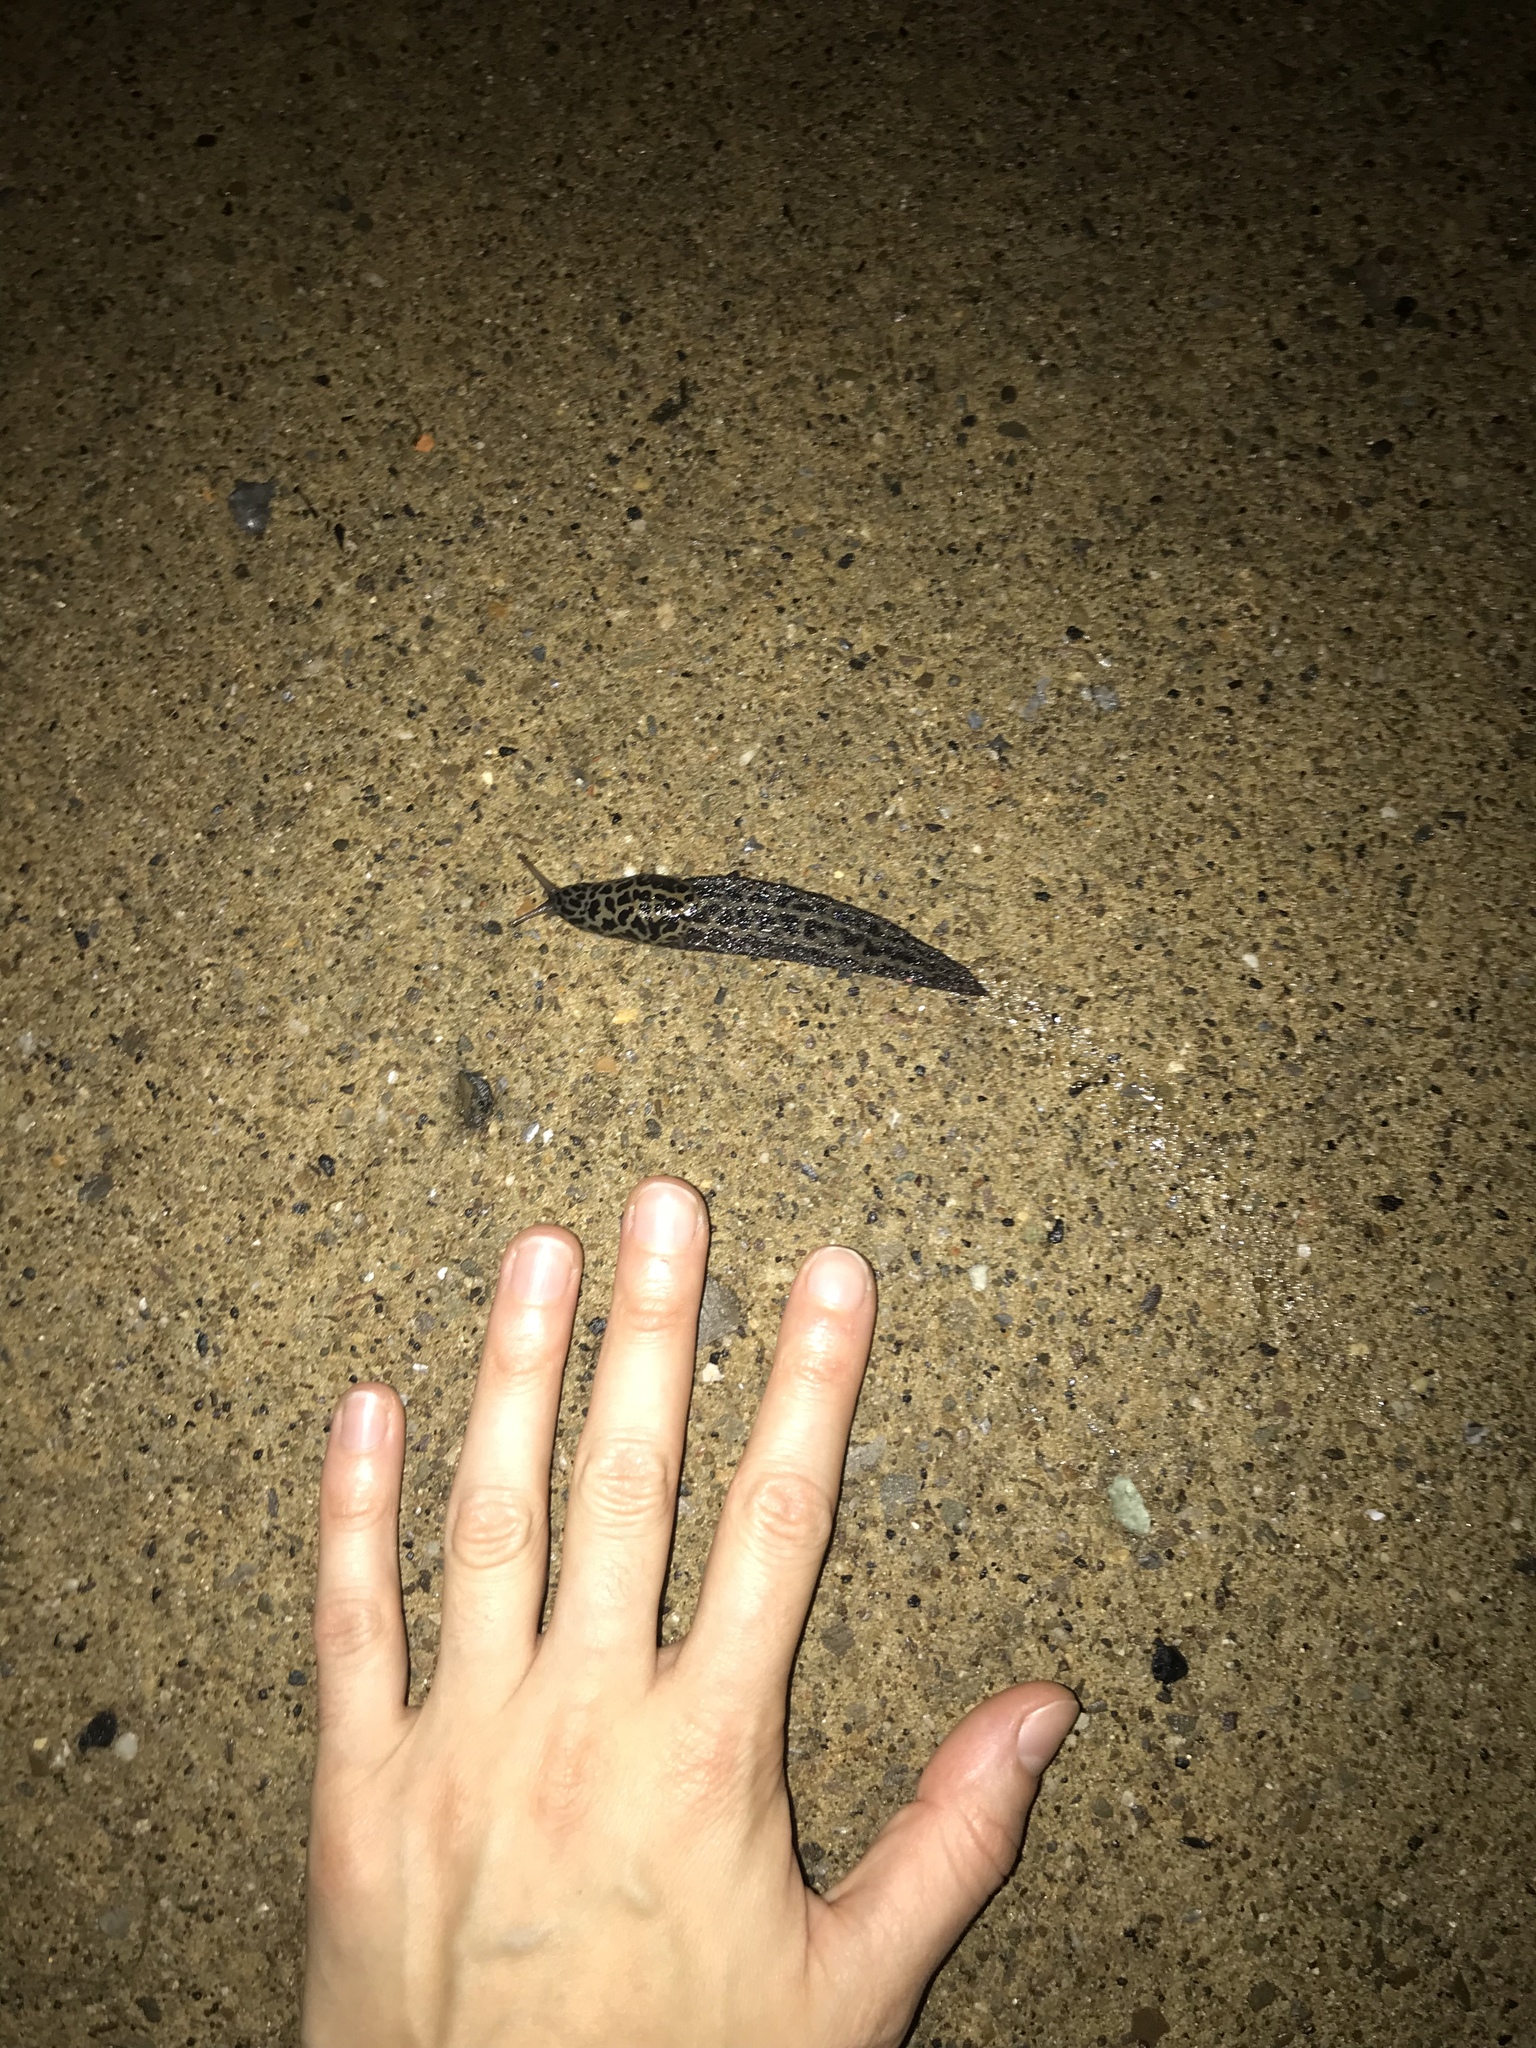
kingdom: Animalia
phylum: Mollusca
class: Gastropoda
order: Stylommatophora
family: Limacidae
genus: Limax
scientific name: Limax maximus
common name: Great grey slug
